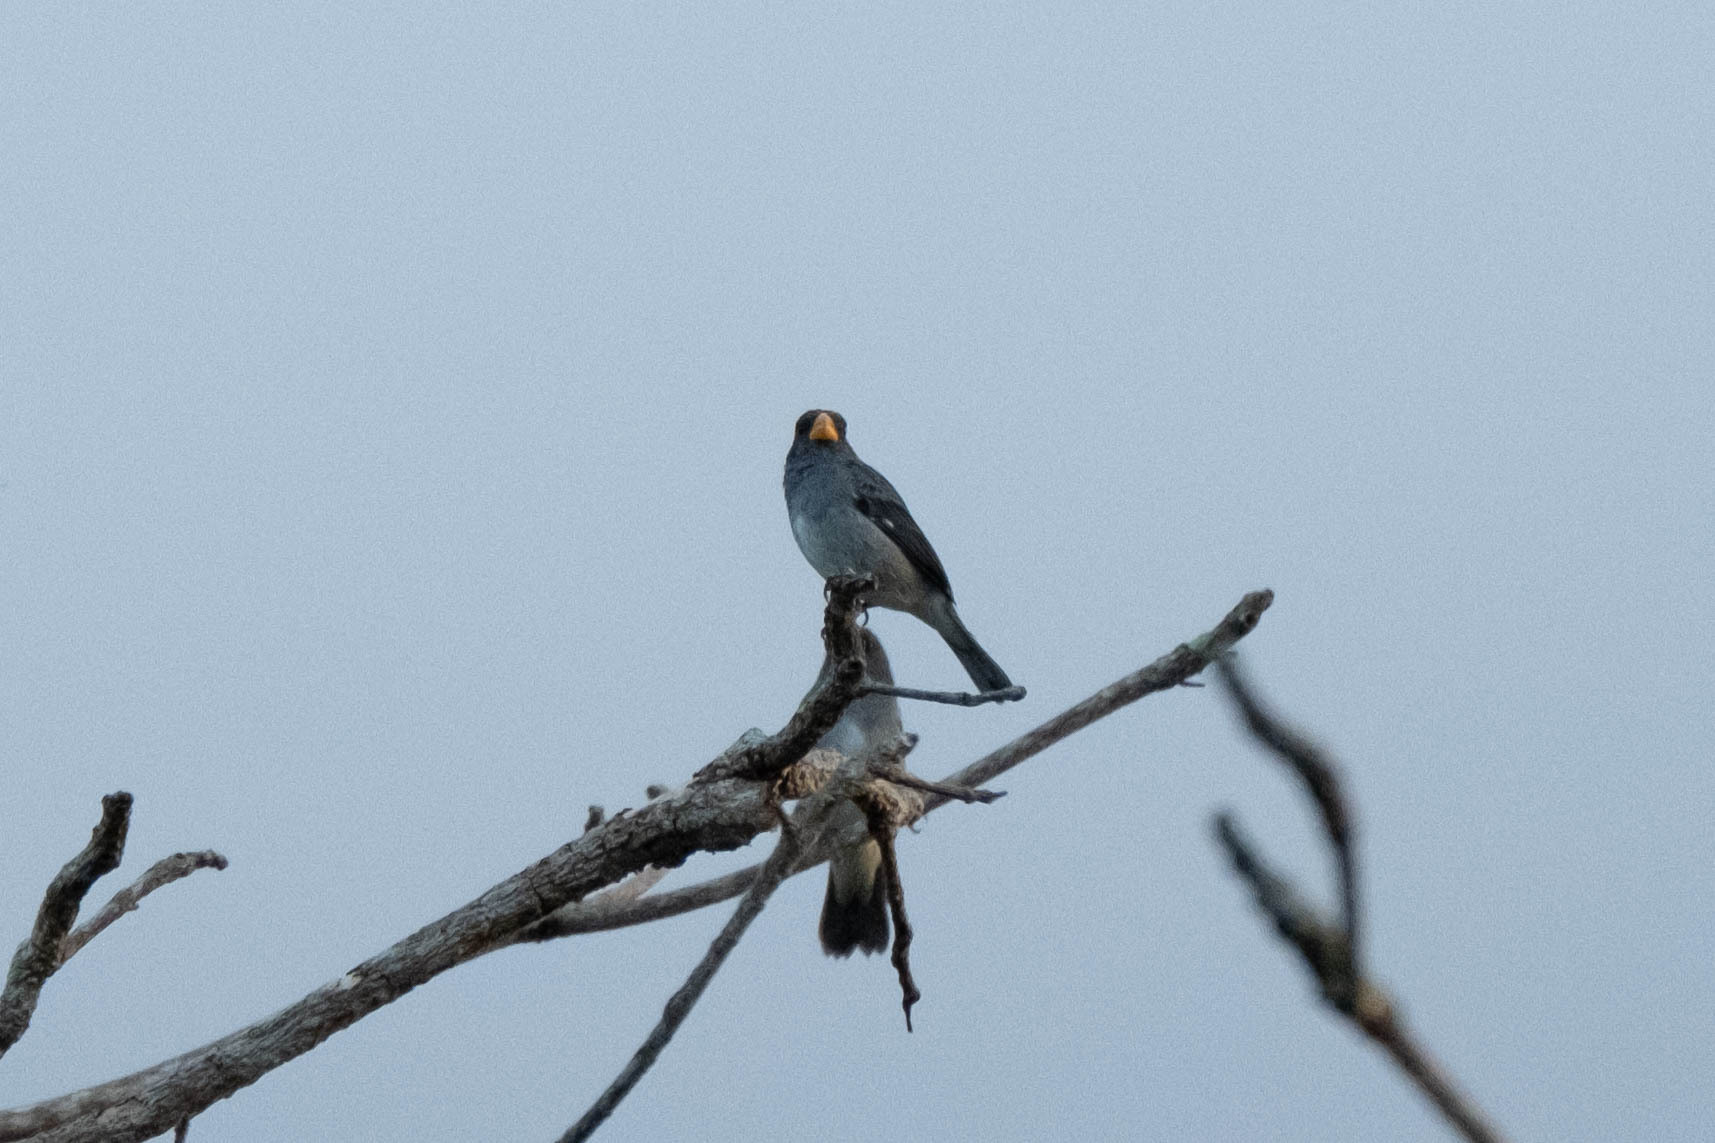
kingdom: Animalia
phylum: Chordata
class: Aves
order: Passeriformes
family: Thraupidae
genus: Sporophila
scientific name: Sporophila intermedia
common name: Grey seedeater
